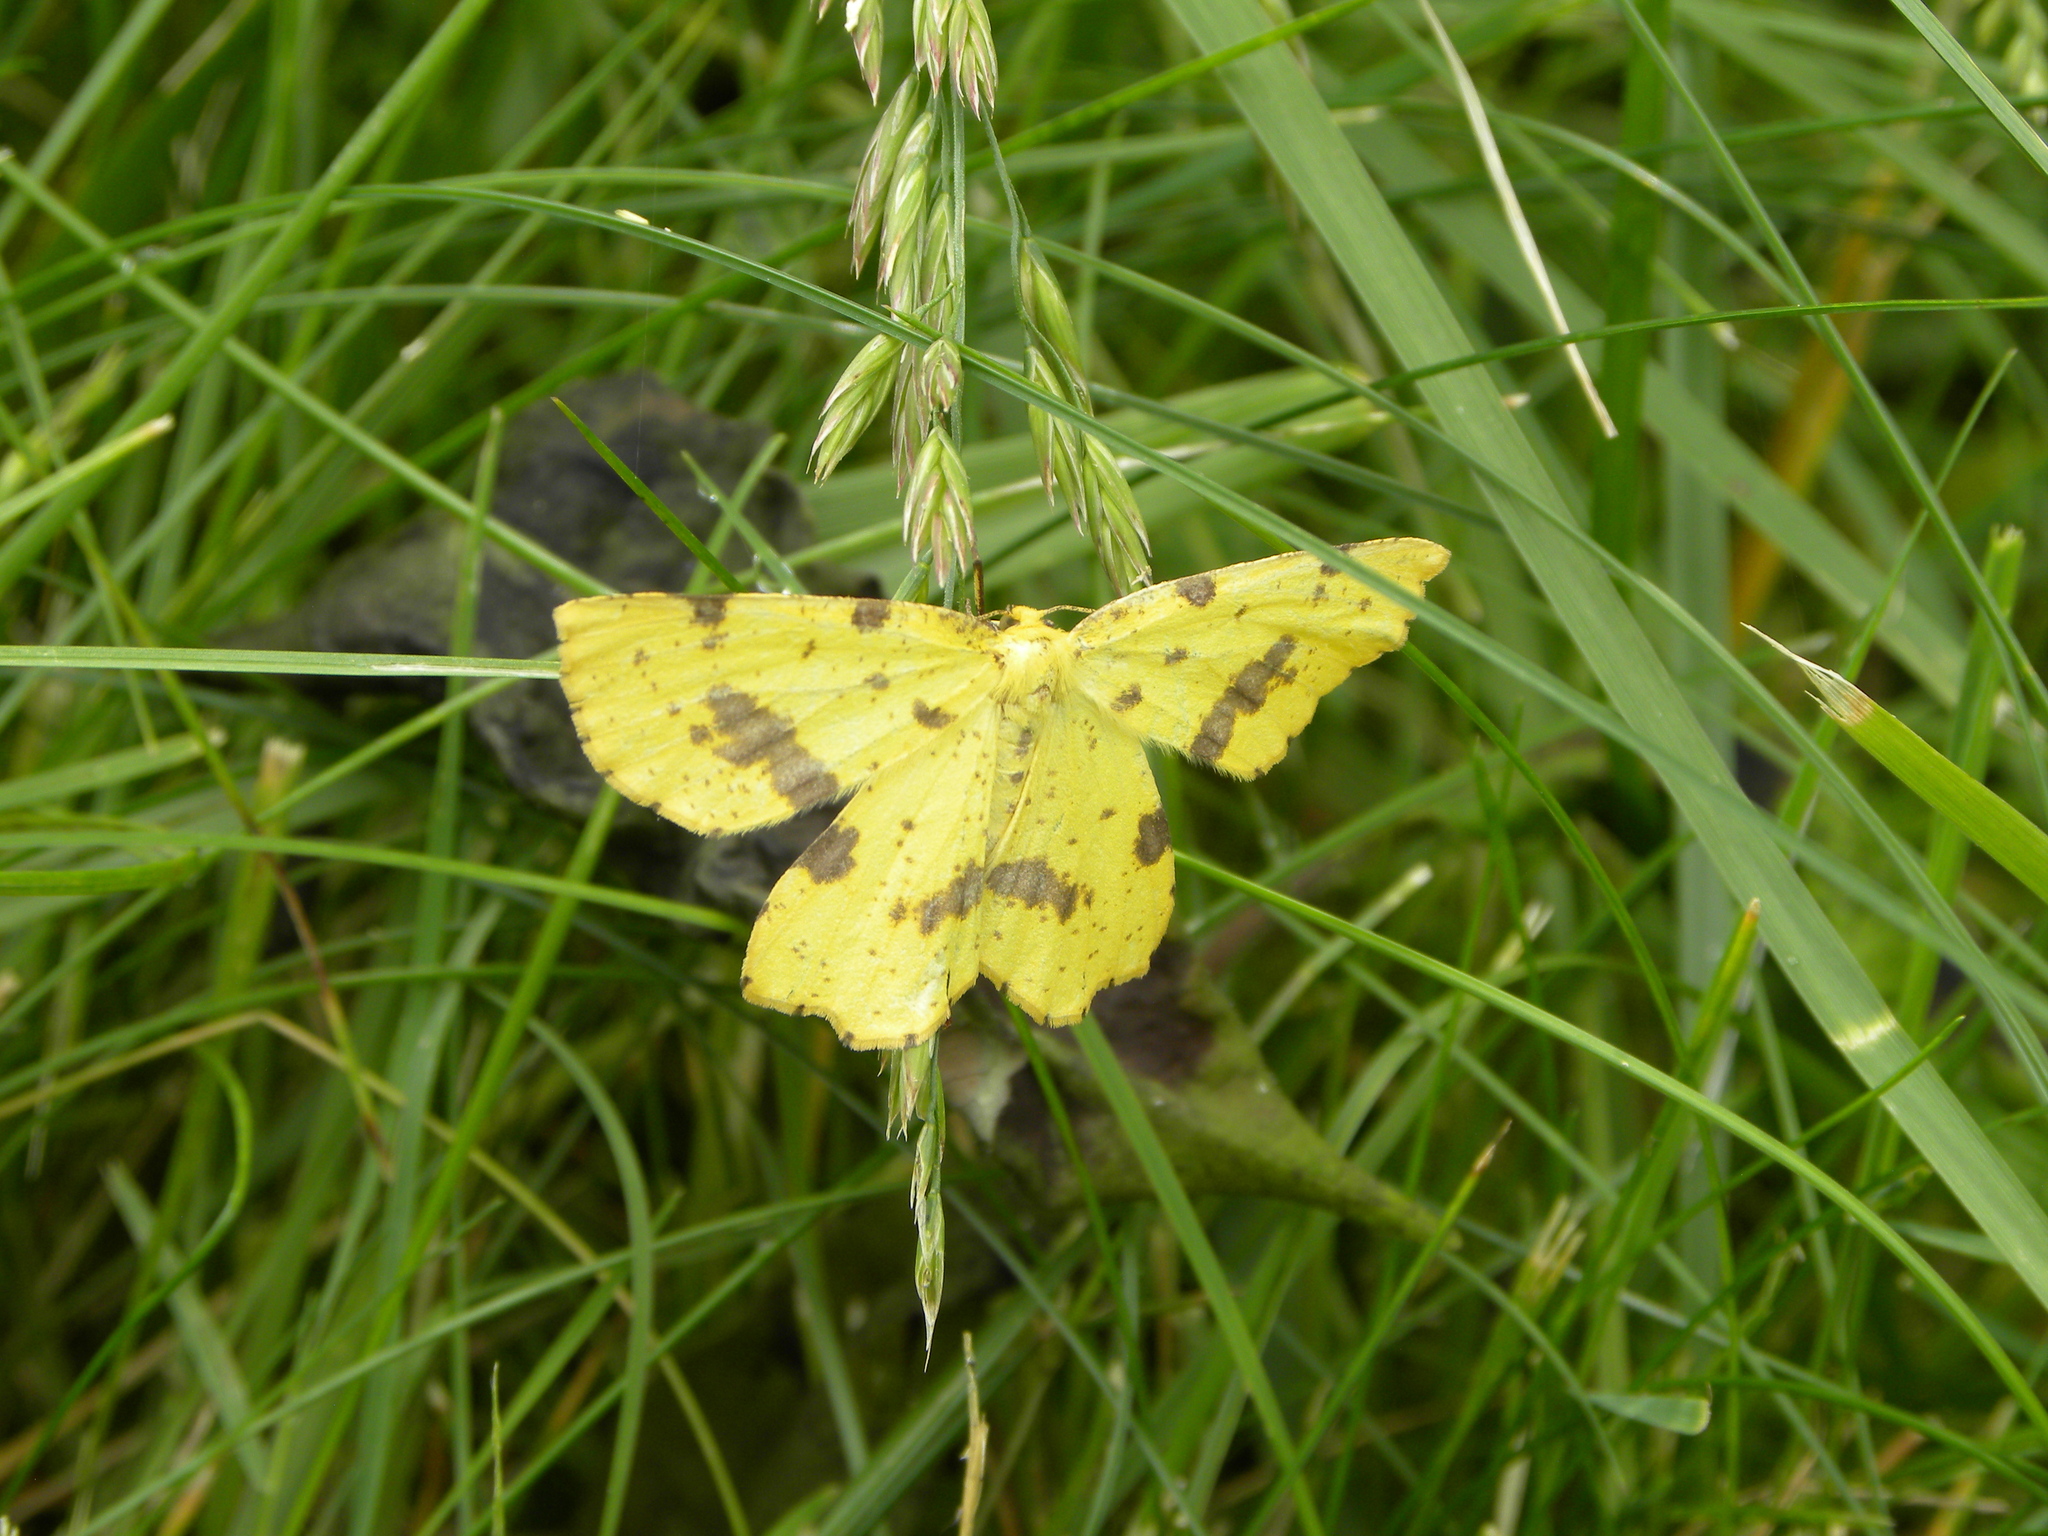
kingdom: Animalia
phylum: Arthropoda
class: Insecta
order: Lepidoptera
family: Geometridae
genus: Xanthotype
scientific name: Xanthotype
